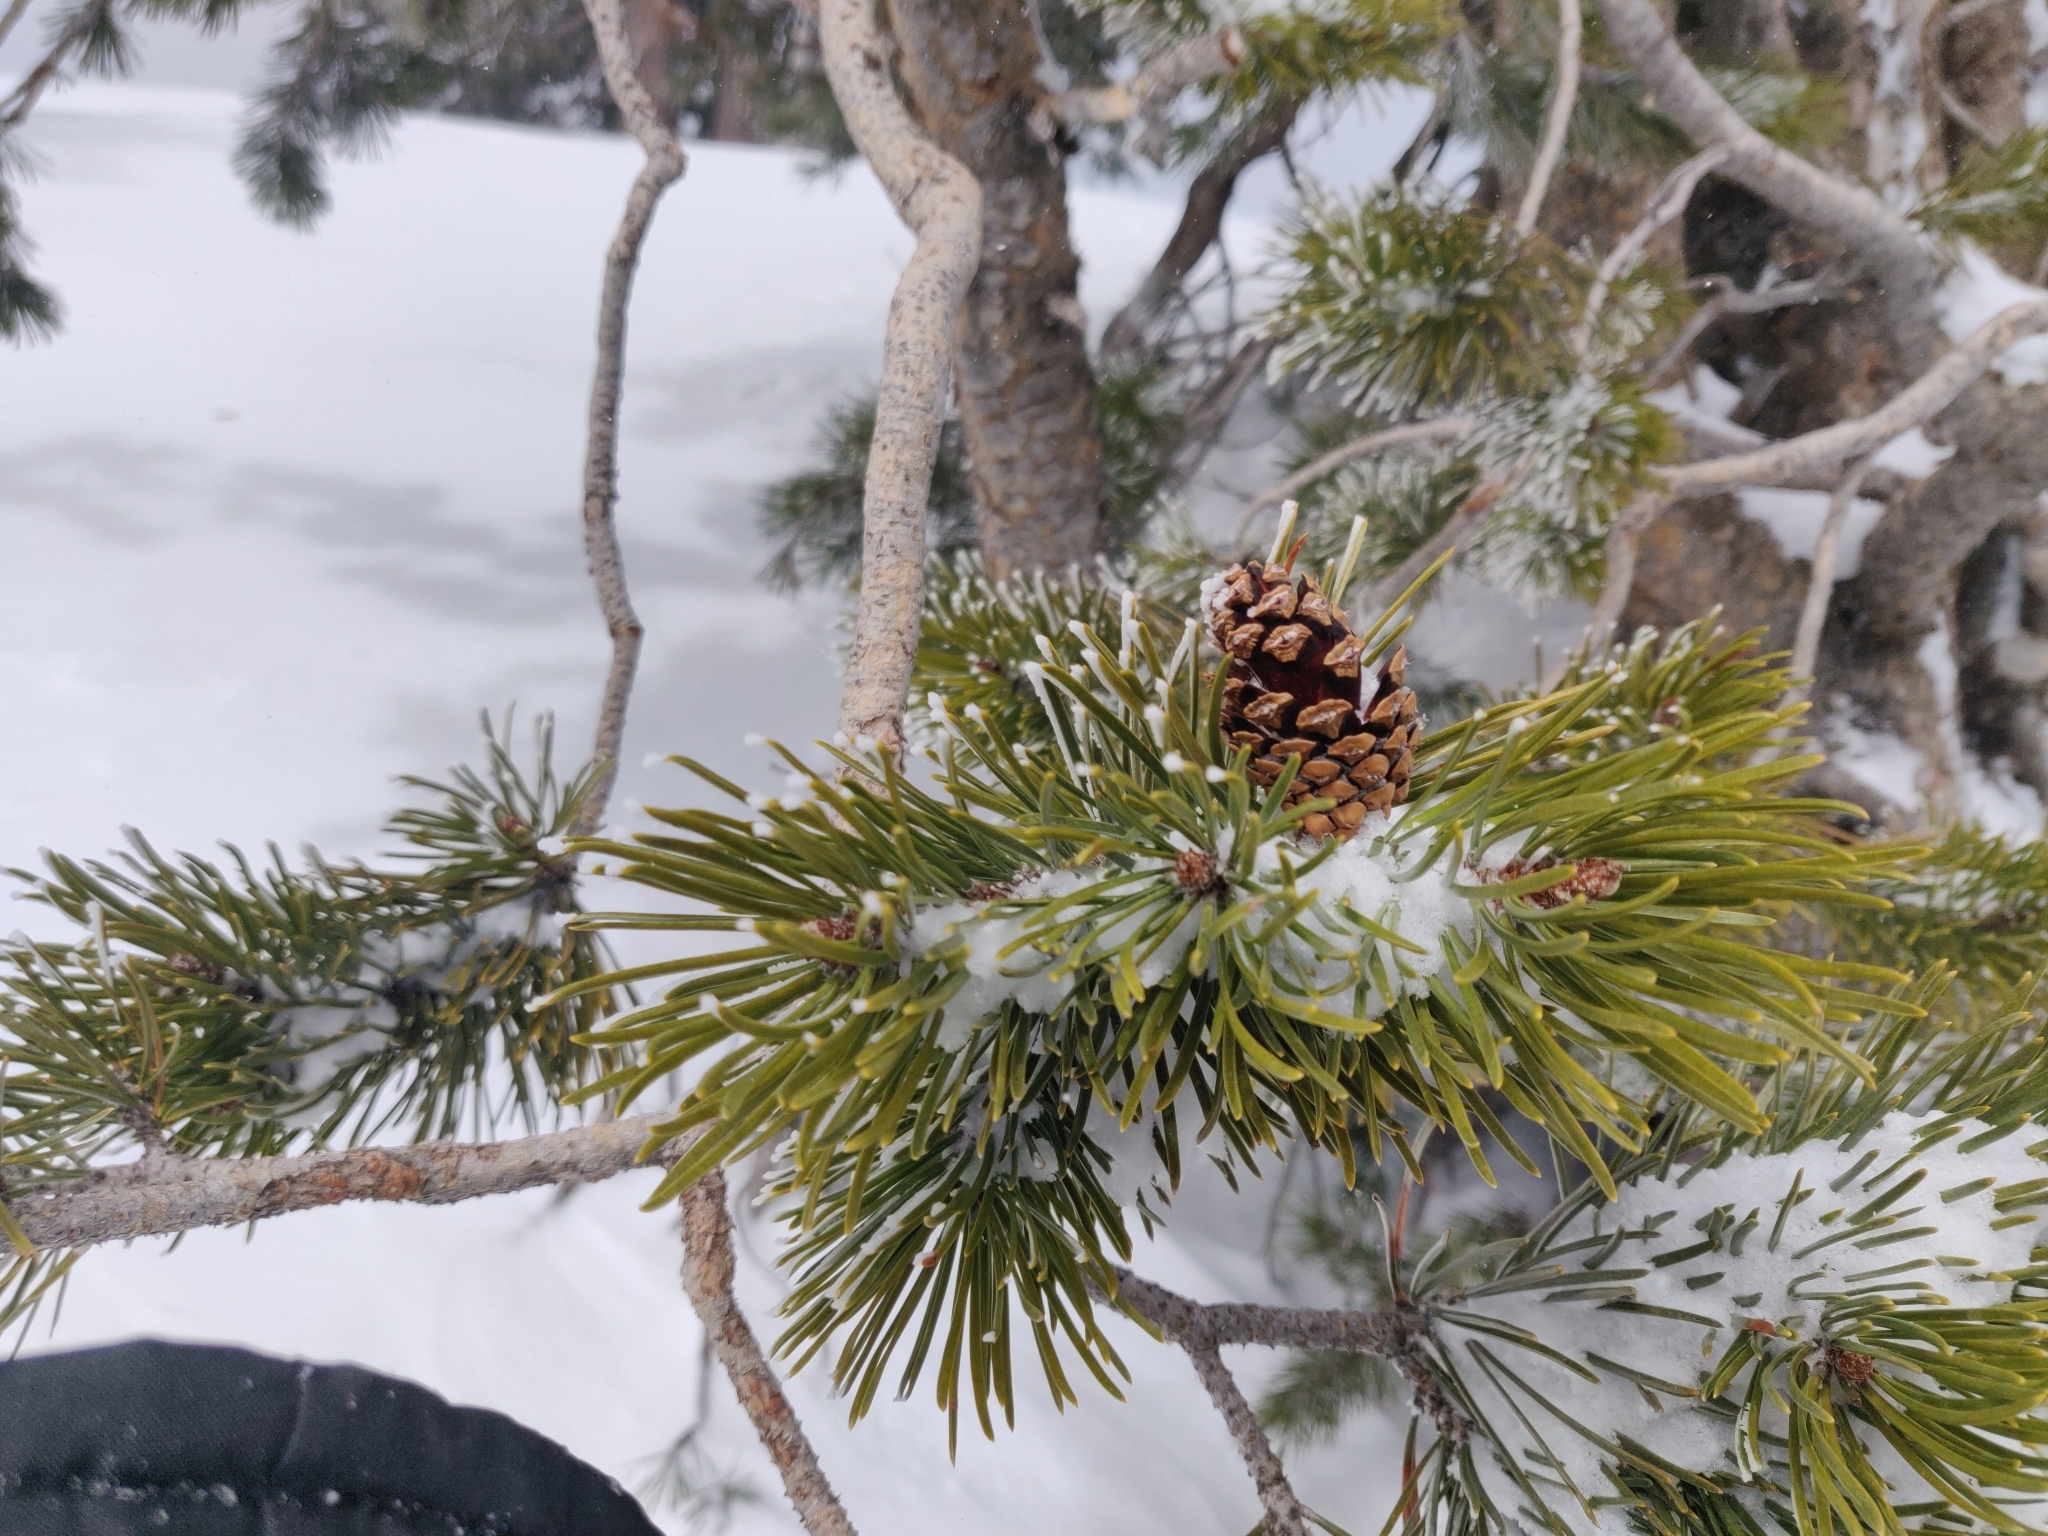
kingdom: Plantae
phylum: Tracheophyta
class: Pinopsida
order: Pinales
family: Pinaceae
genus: Pinus
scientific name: Pinus contorta
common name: Lodgepole pine
